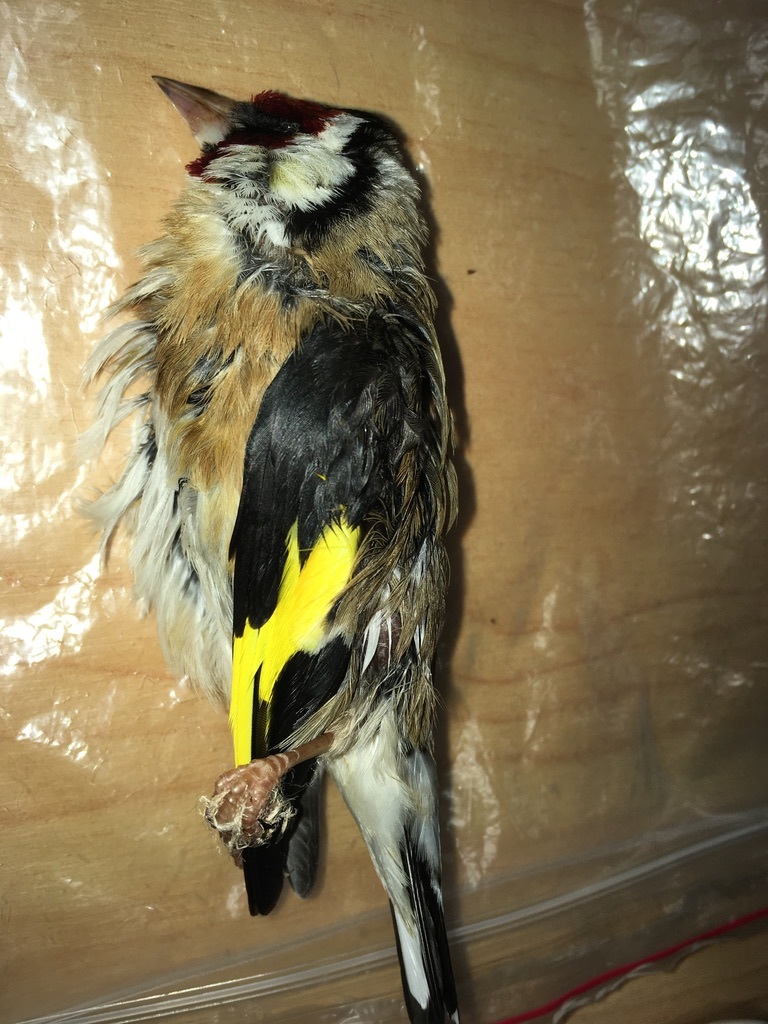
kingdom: Animalia
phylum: Chordata
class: Aves
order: Passeriformes
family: Fringillidae
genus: Carduelis
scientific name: Carduelis carduelis
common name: European goldfinch
